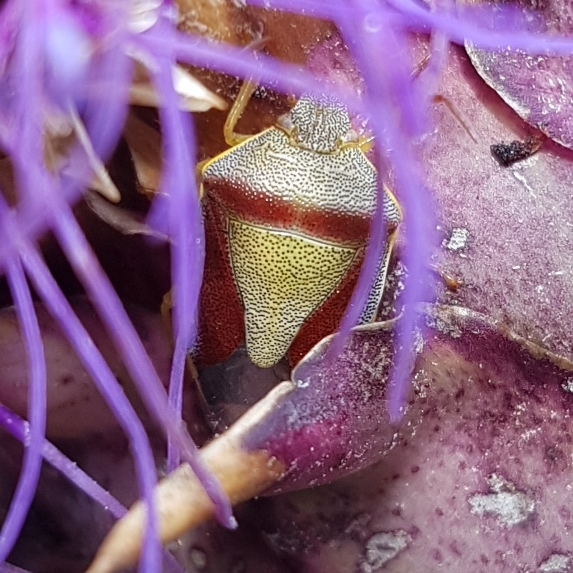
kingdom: Animalia
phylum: Arthropoda
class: Insecta
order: Hemiptera
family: Pentatomidae
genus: Piezodorus
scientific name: Piezodorus lituratus
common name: Stink bug
